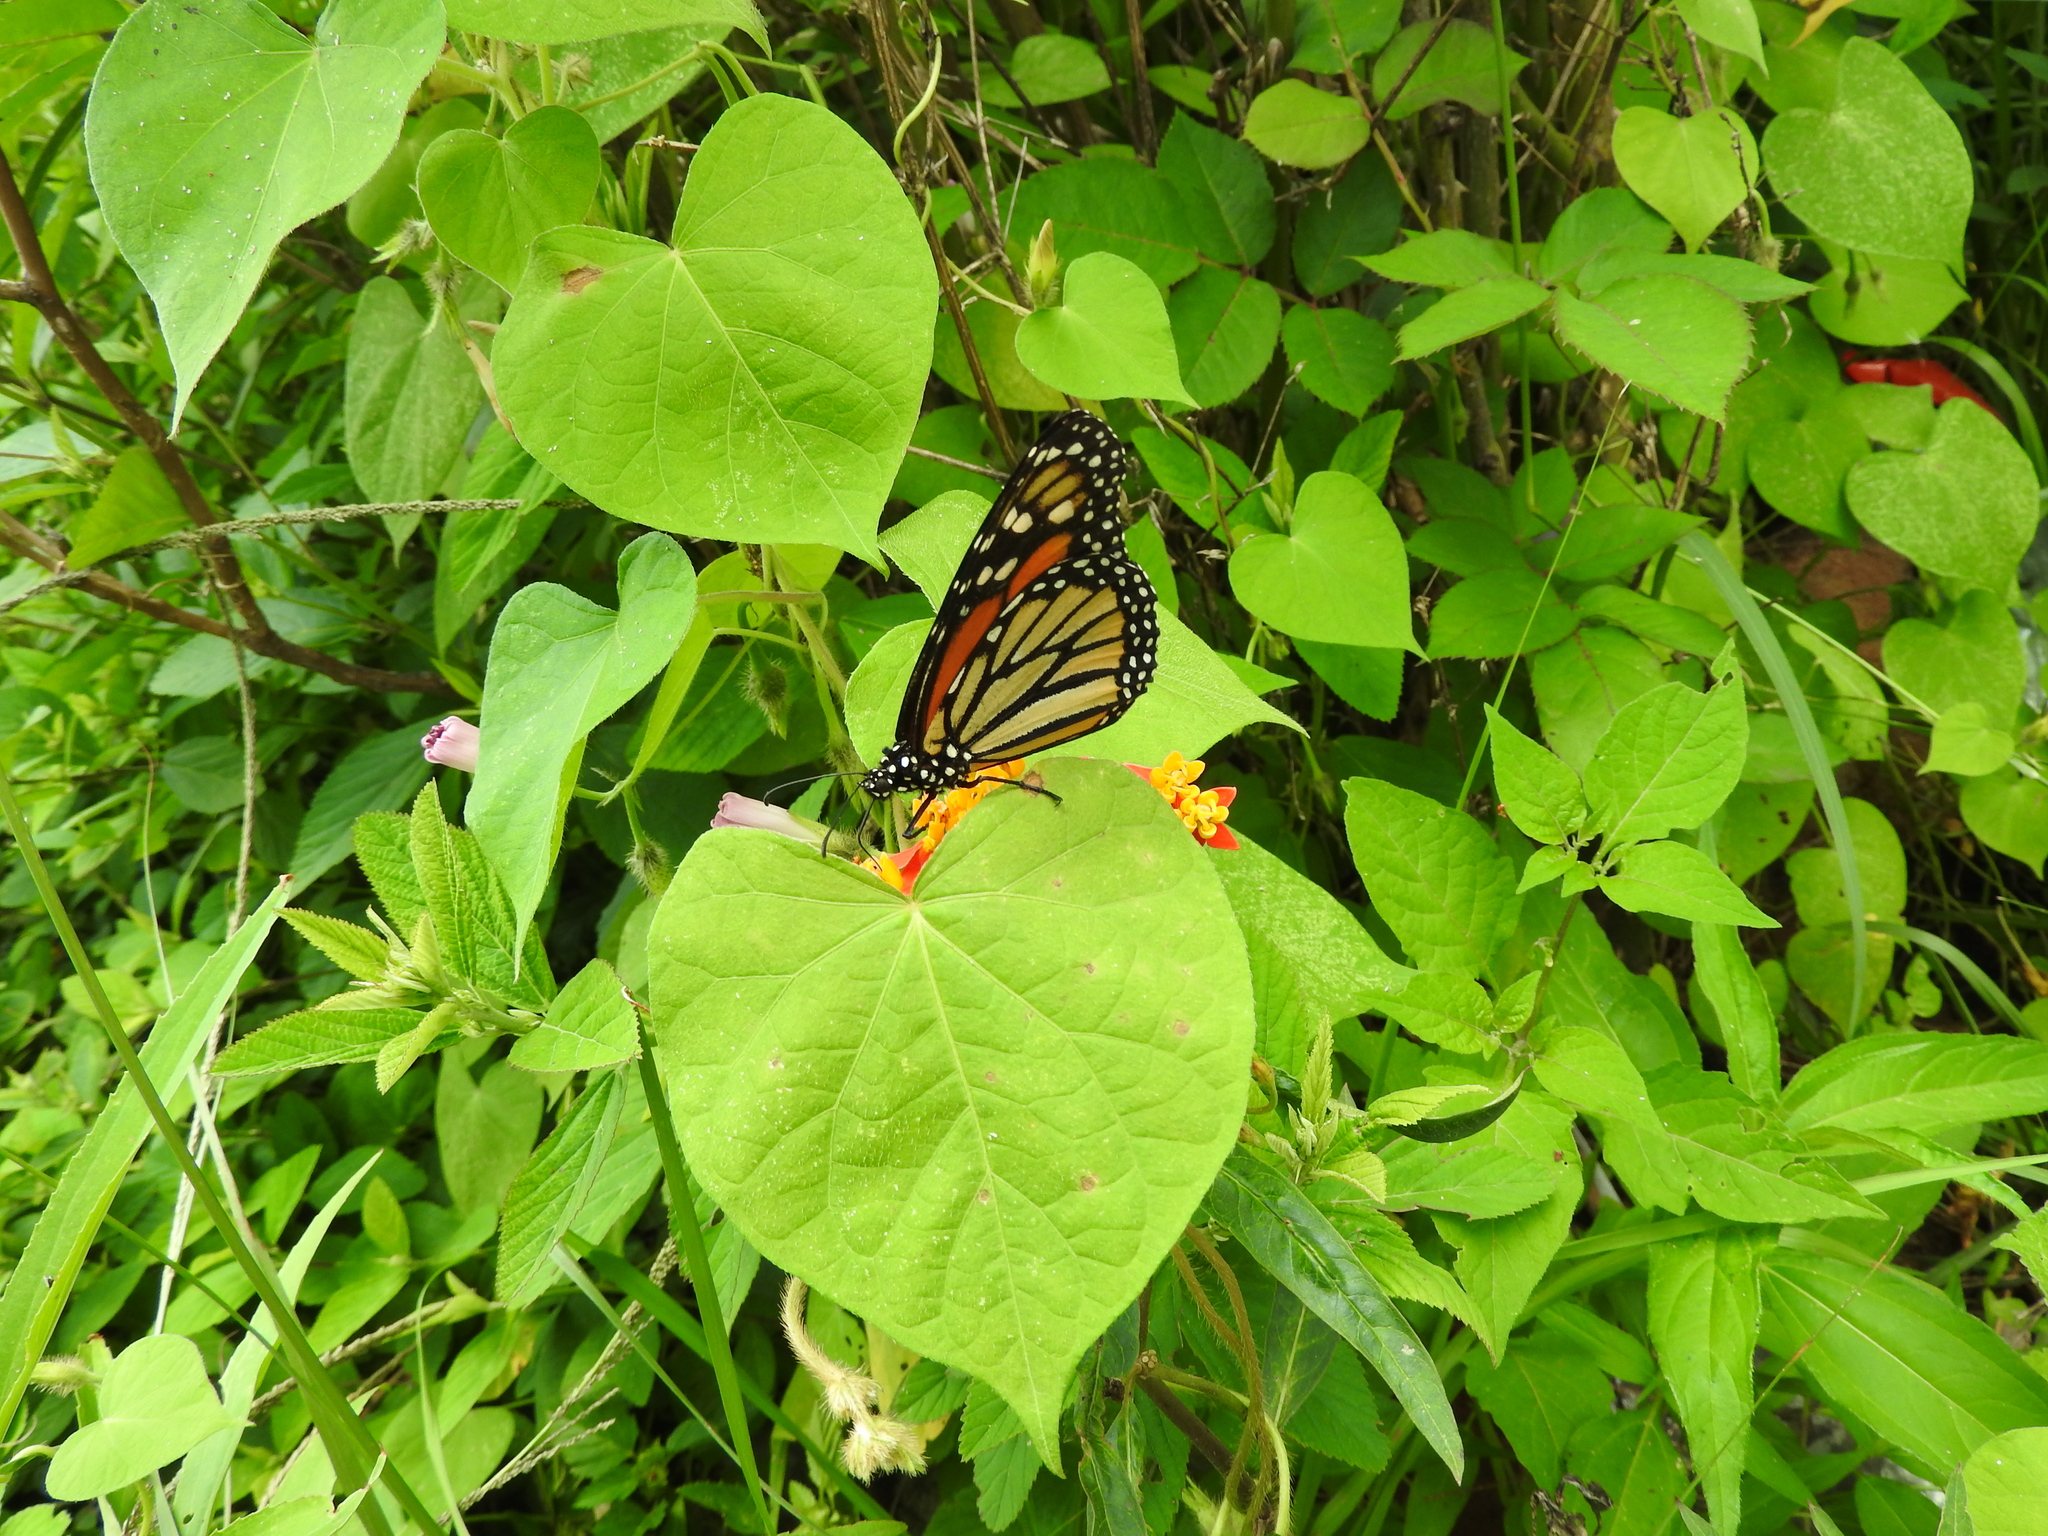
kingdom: Animalia
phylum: Arthropoda
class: Insecta
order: Lepidoptera
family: Nymphalidae
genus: Danaus
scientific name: Danaus plexippus
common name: Monarch
